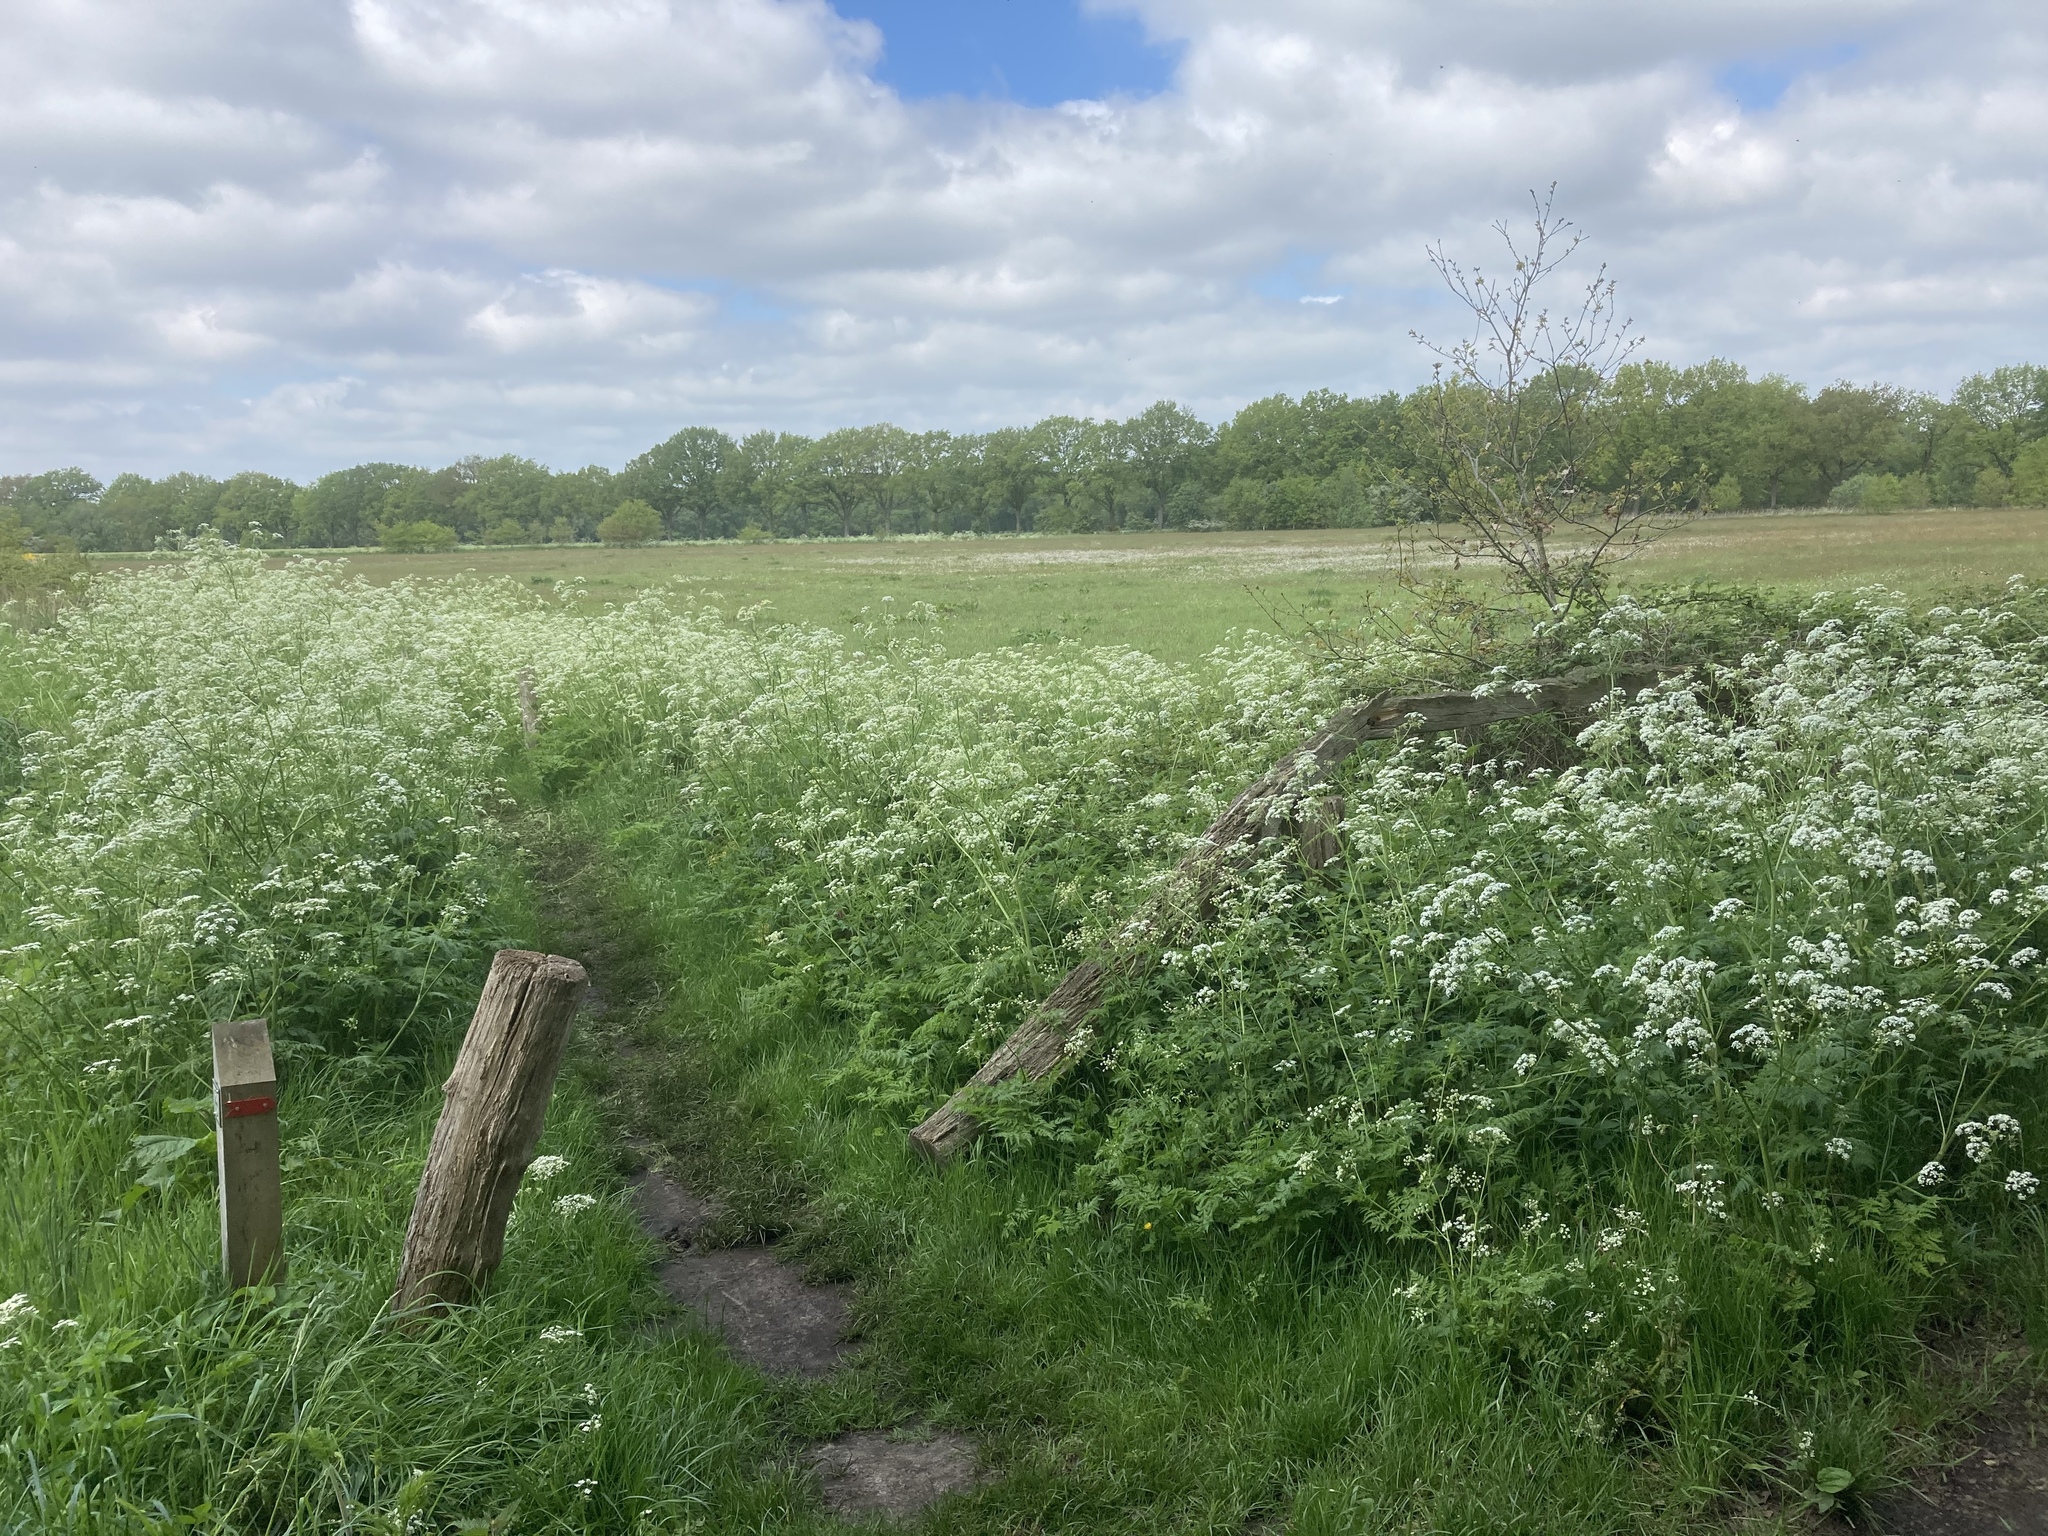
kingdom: Plantae
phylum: Tracheophyta
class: Magnoliopsida
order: Apiales
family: Apiaceae
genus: Anthriscus
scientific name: Anthriscus sylvestris
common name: Cow parsley
